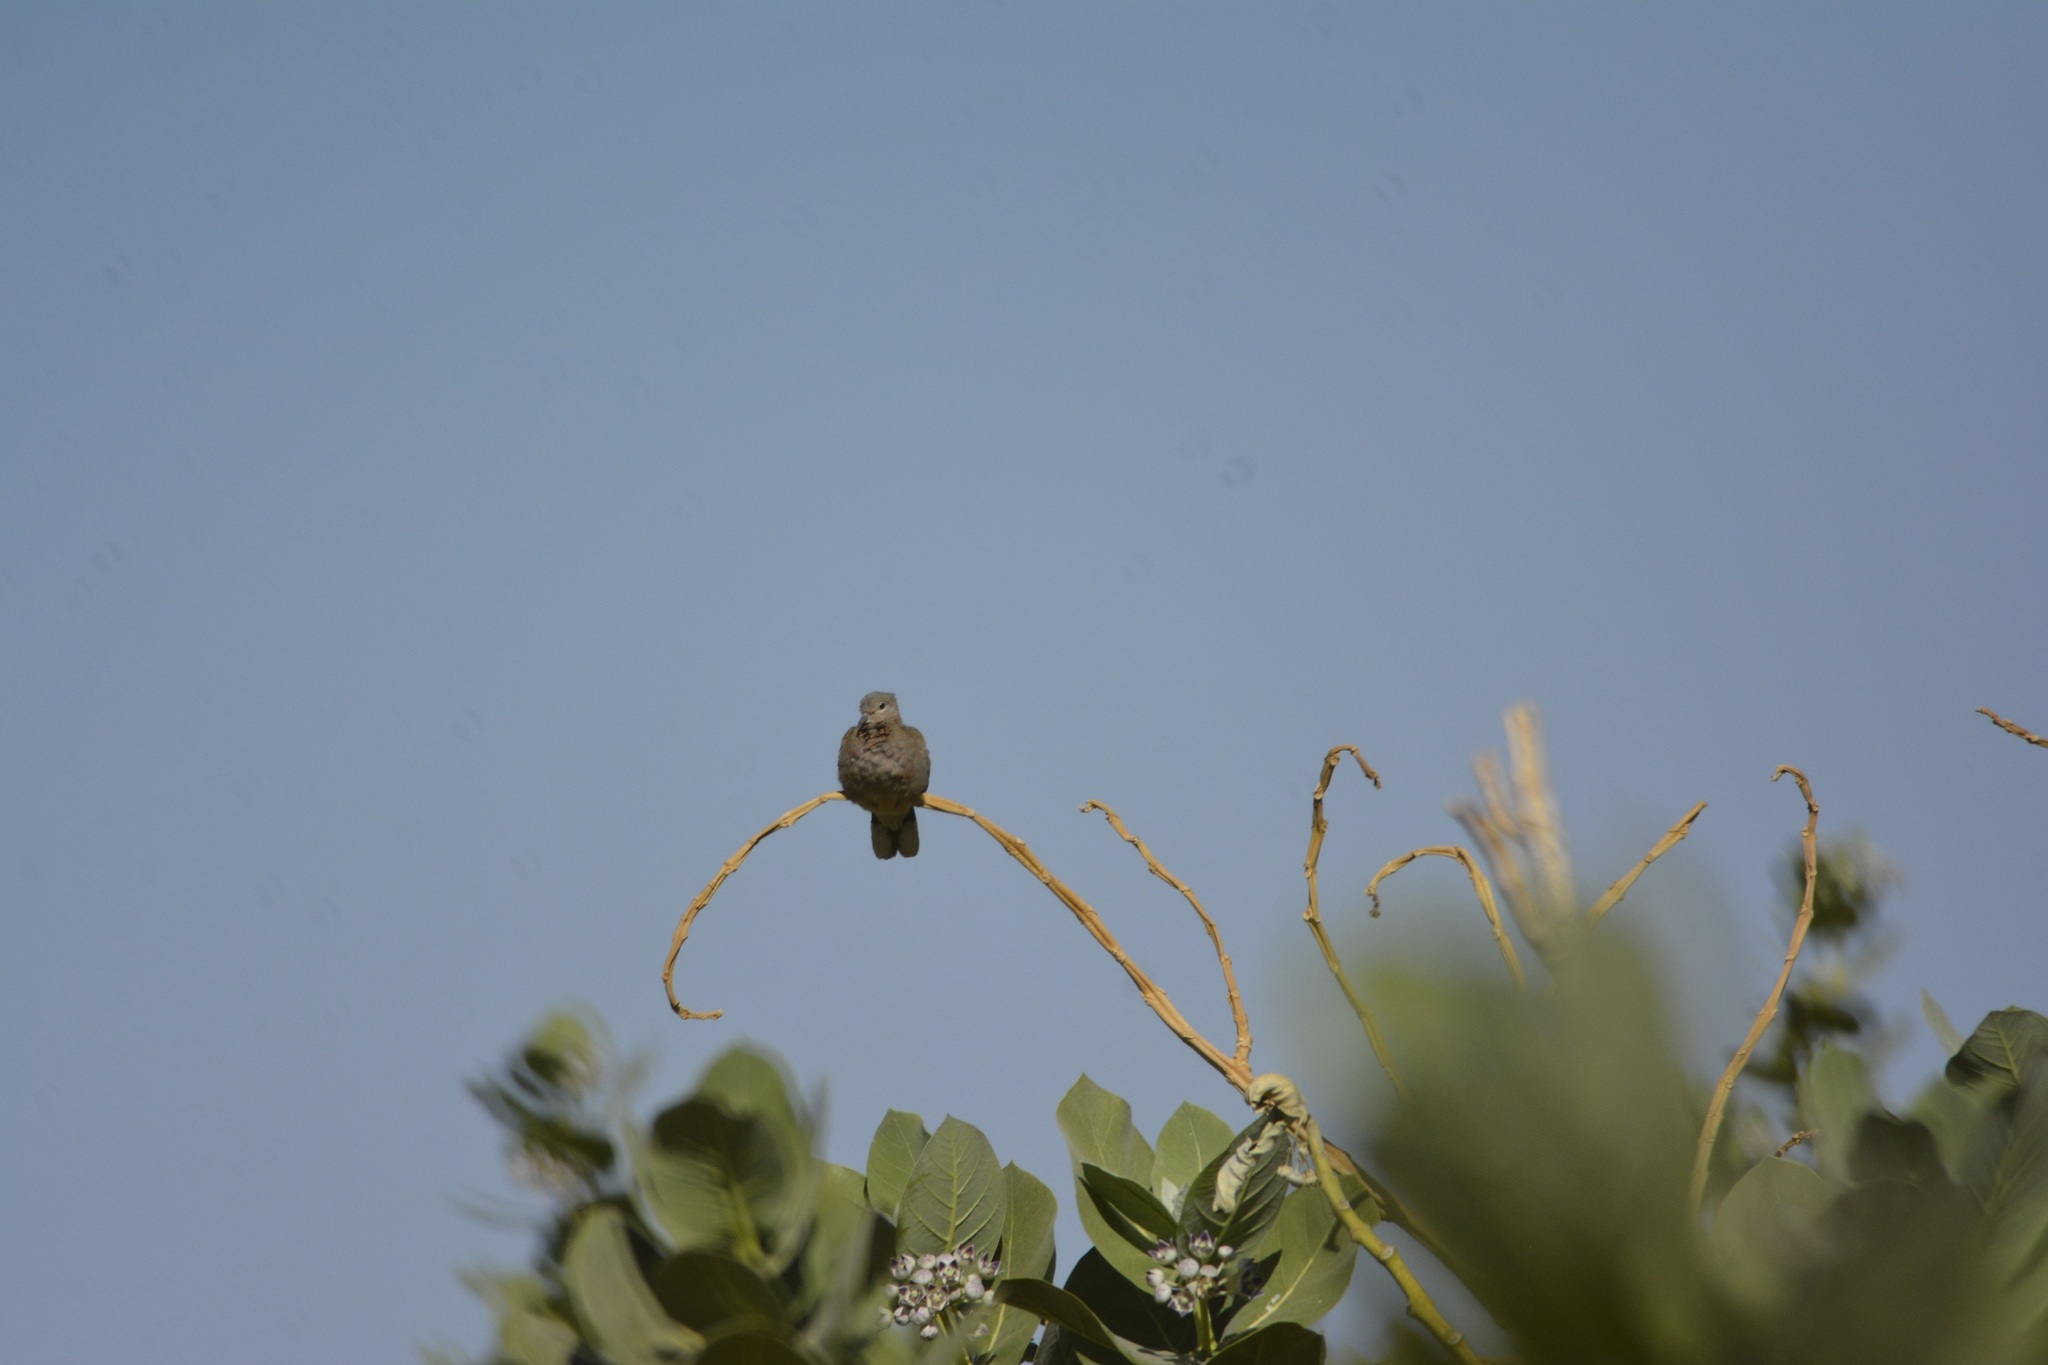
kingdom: Animalia
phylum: Chordata
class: Aves
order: Columbiformes
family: Columbidae
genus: Spilopelia
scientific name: Spilopelia senegalensis
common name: Laughing dove
